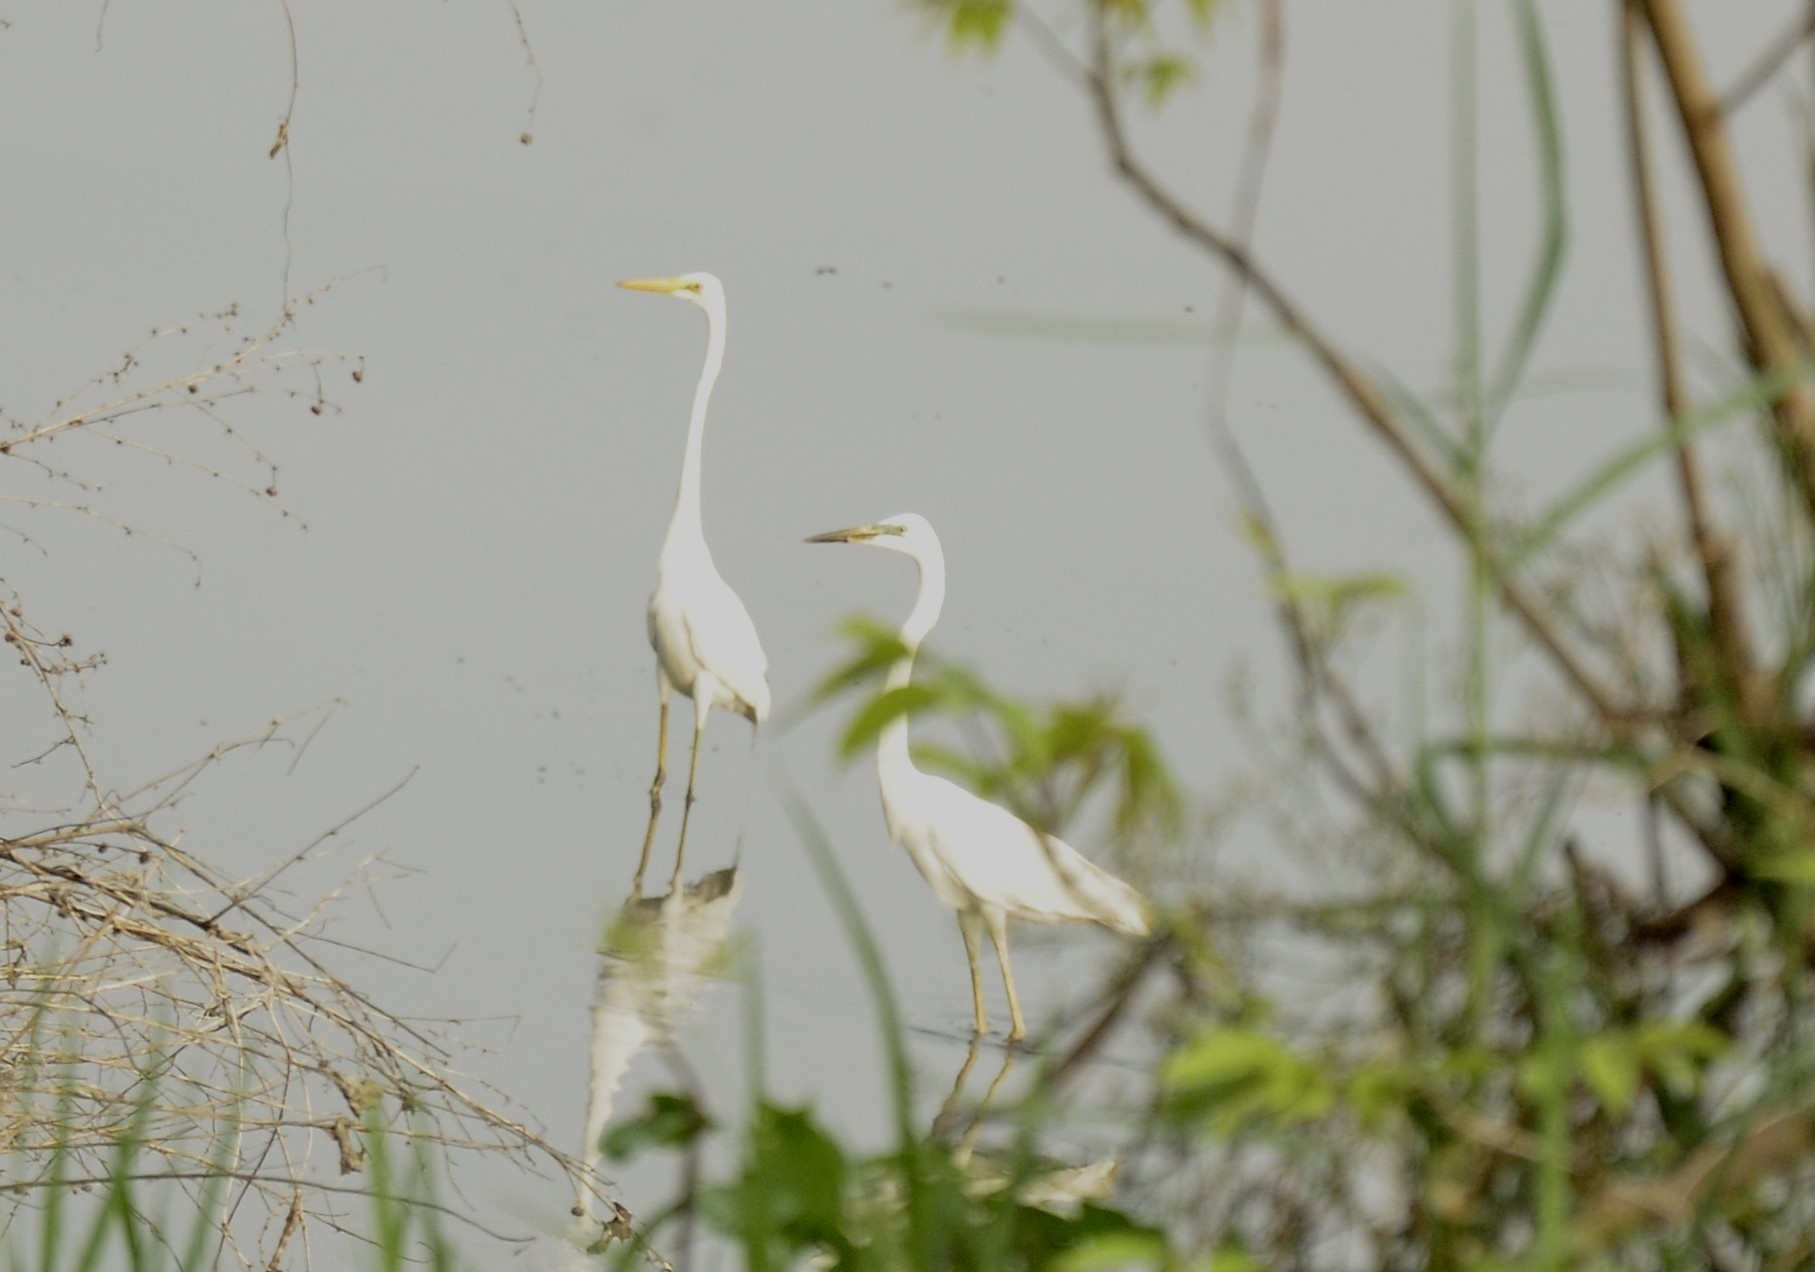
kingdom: Animalia
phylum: Chordata
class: Aves
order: Pelecaniformes
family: Ardeidae
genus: Ardea
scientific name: Ardea alba
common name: Great egret
